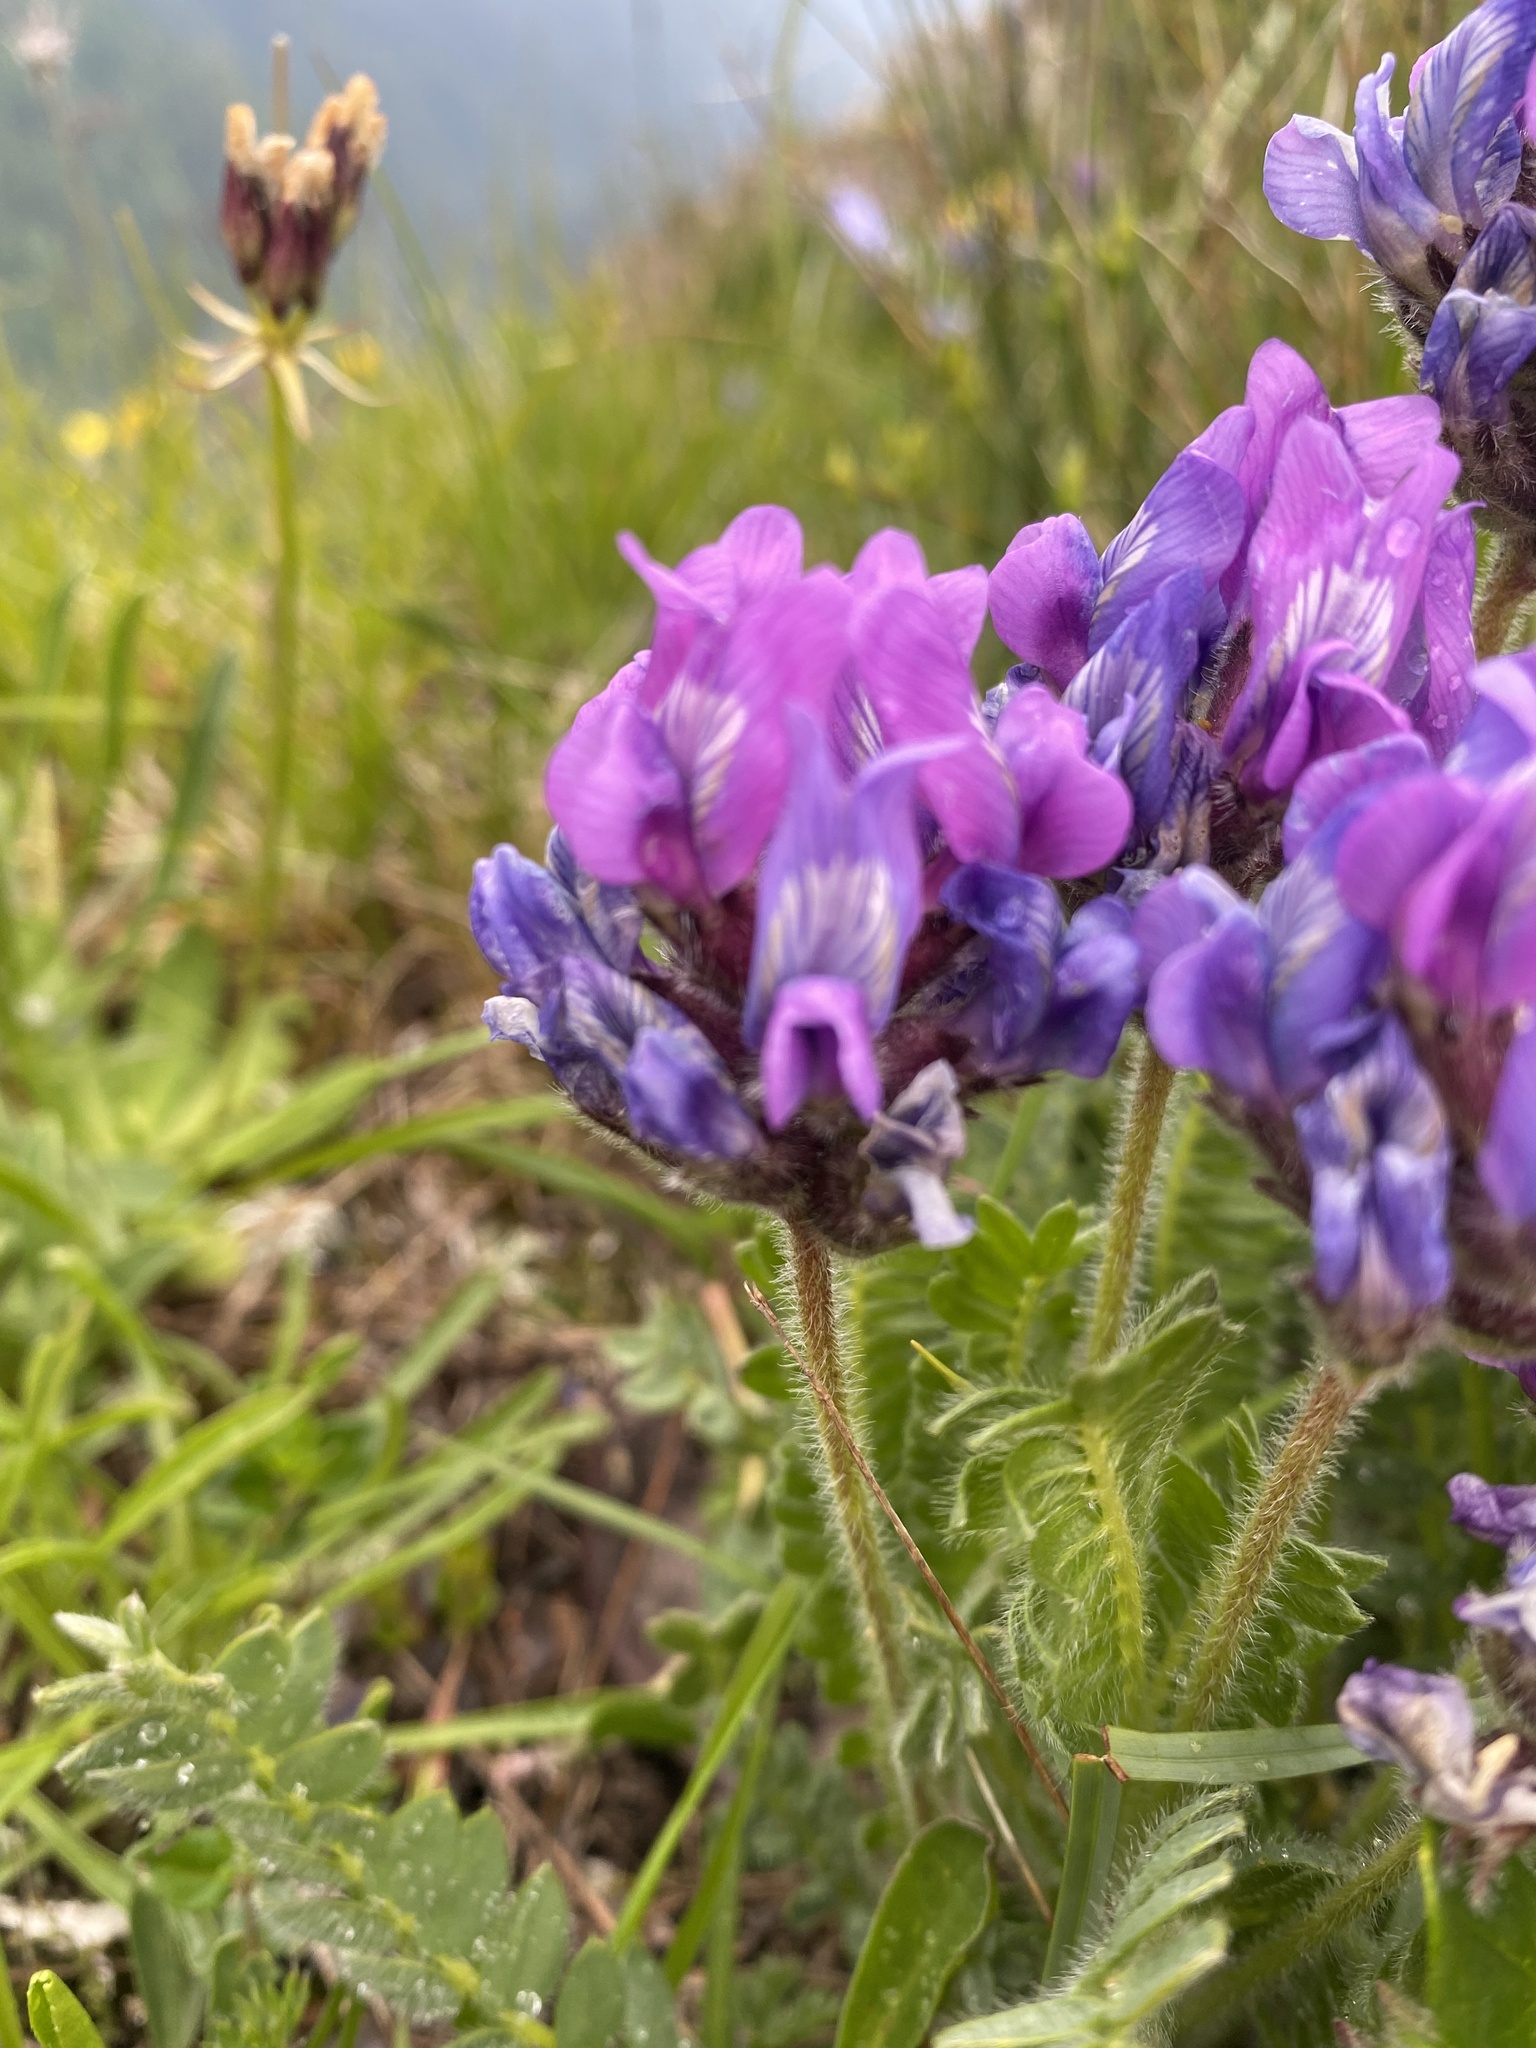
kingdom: Plantae
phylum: Tracheophyta
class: Magnoliopsida
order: Fabales
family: Fabaceae
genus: Oxytropis
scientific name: Oxytropis lazica
